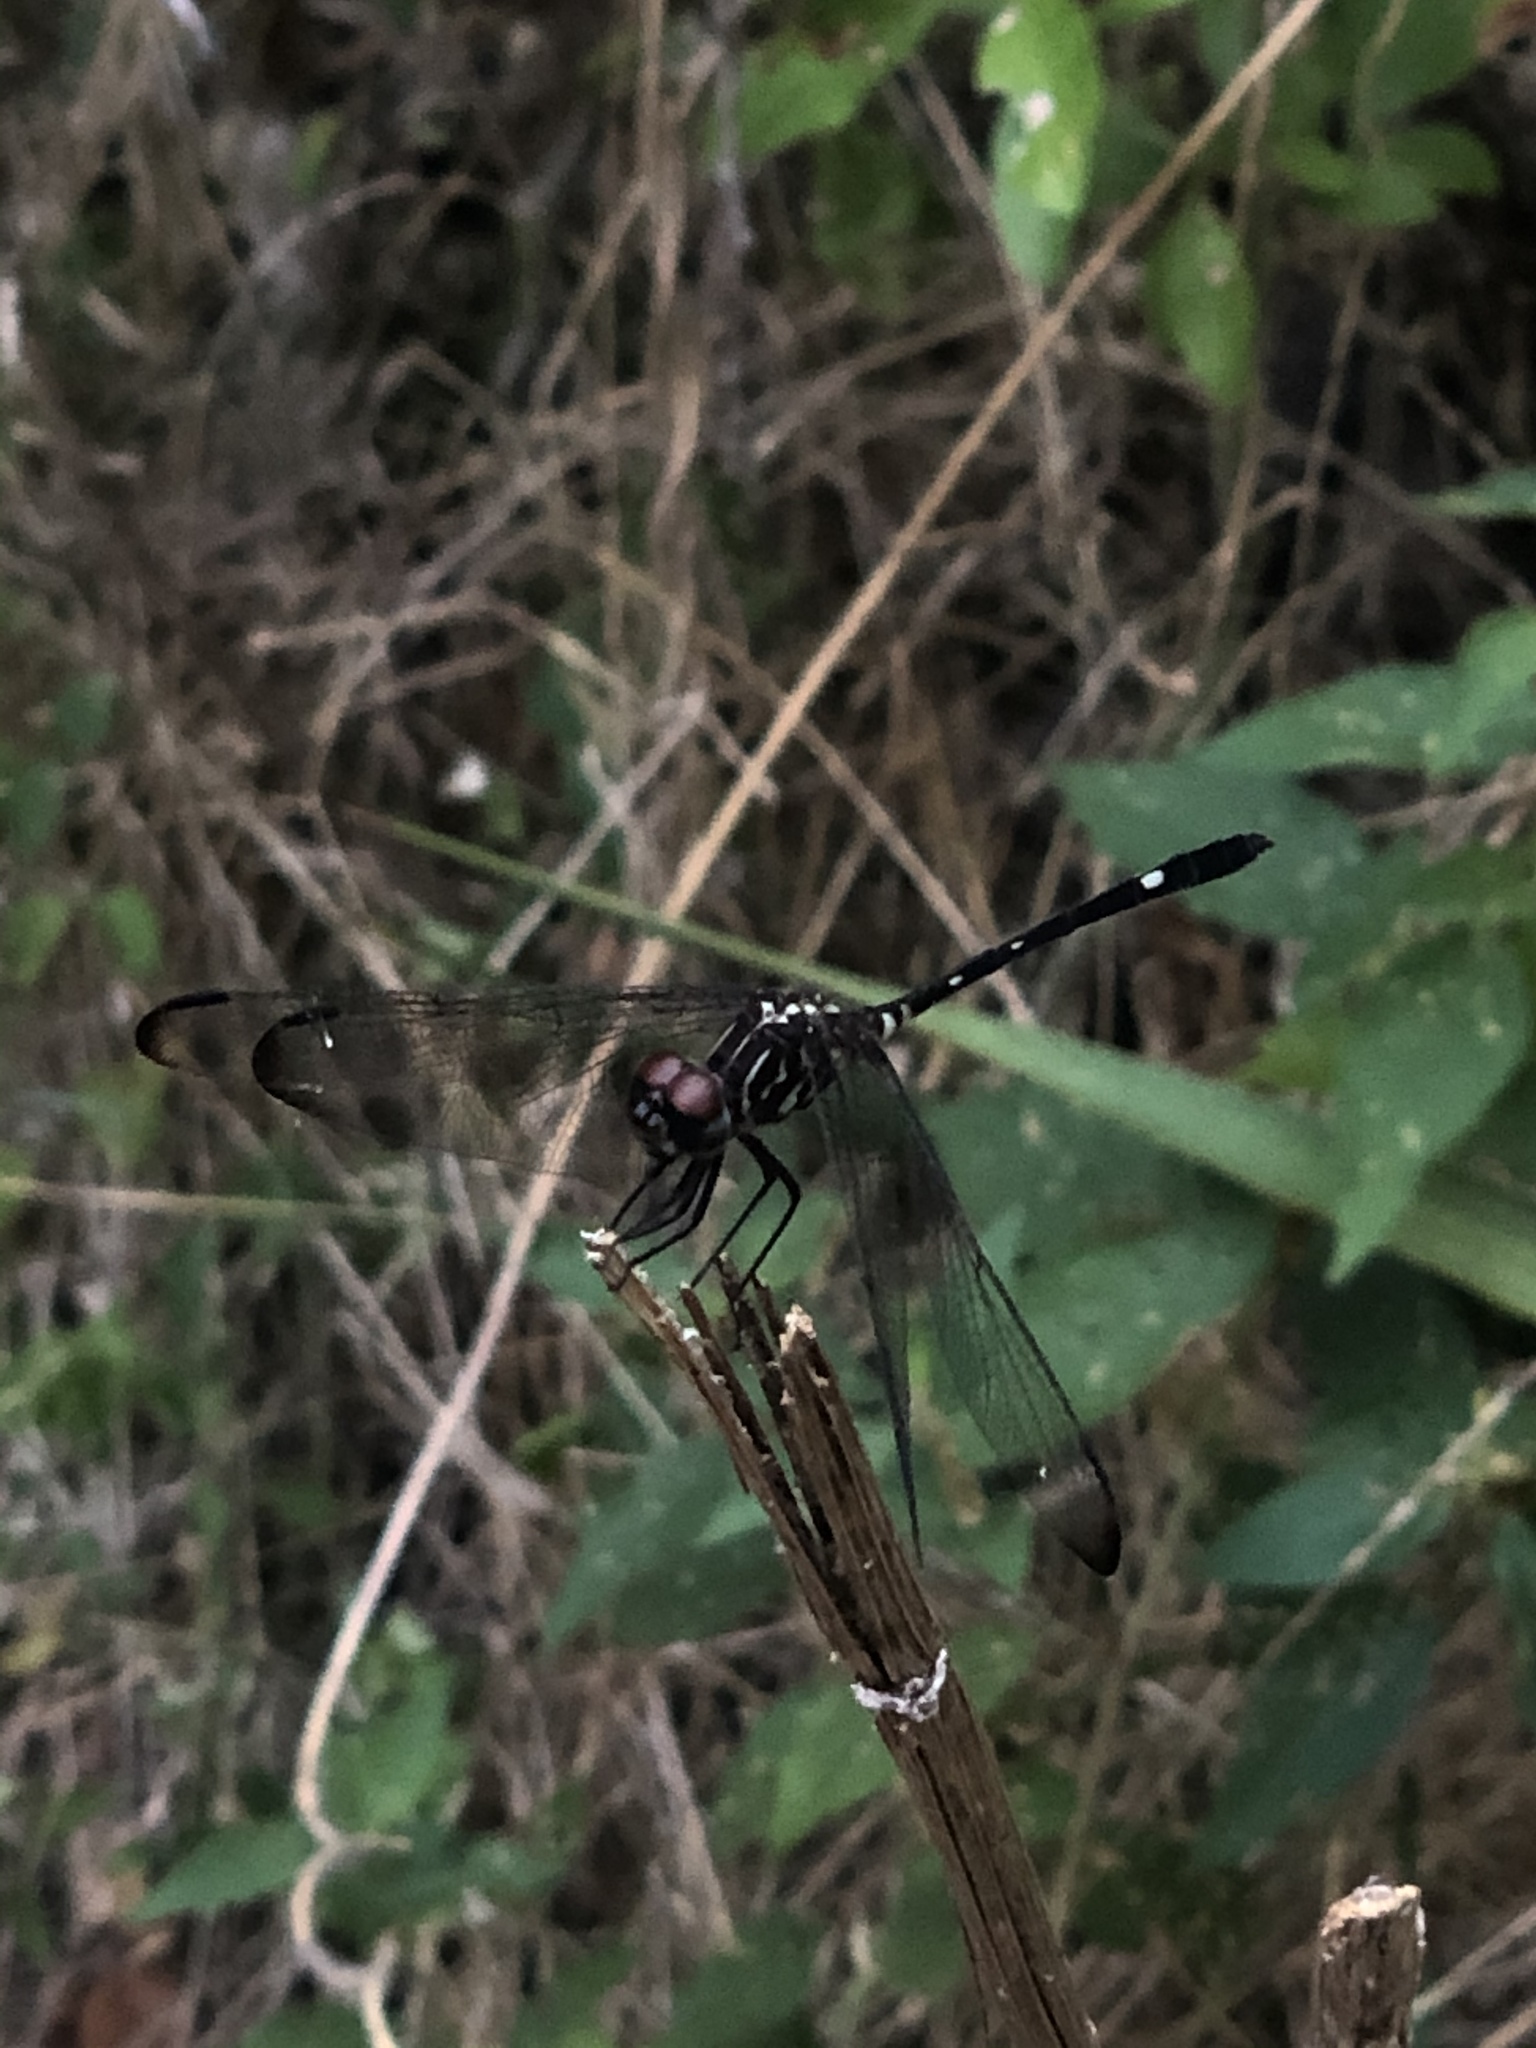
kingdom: Animalia
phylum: Arthropoda
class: Insecta
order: Odonata
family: Libellulidae
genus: Dythemis
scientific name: Dythemis velox
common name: Swift setwing
